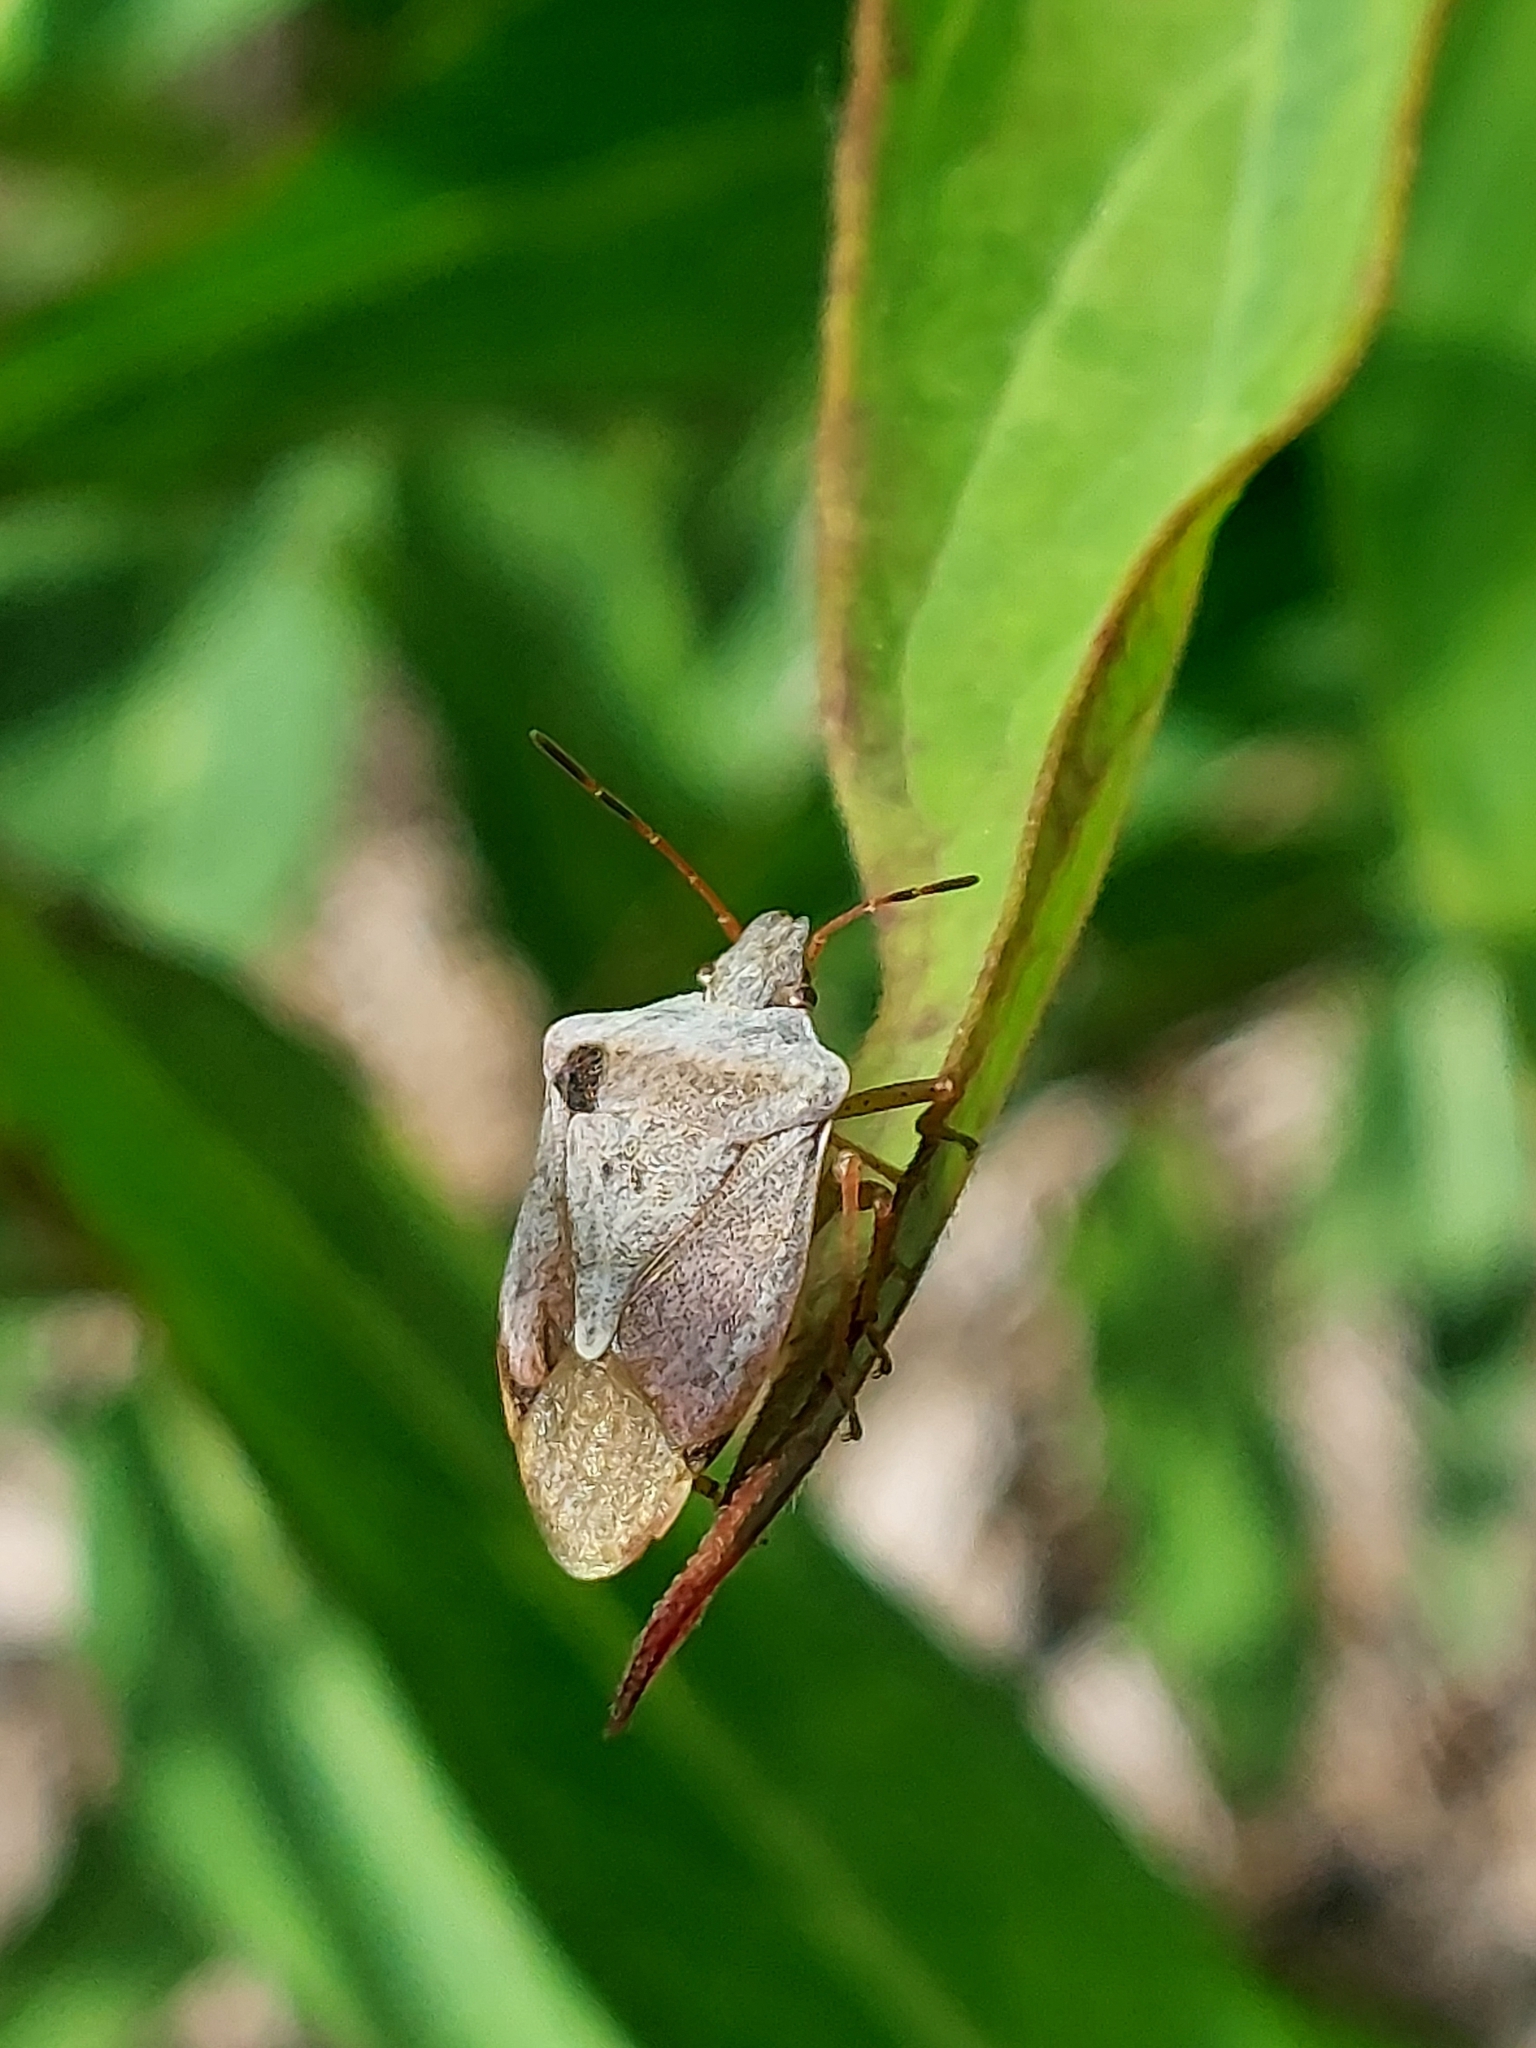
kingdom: Animalia
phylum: Arthropoda
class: Insecta
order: Hemiptera
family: Pentatomidae
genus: Euschistus
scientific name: Euschistus servus
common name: Brown stink bug
